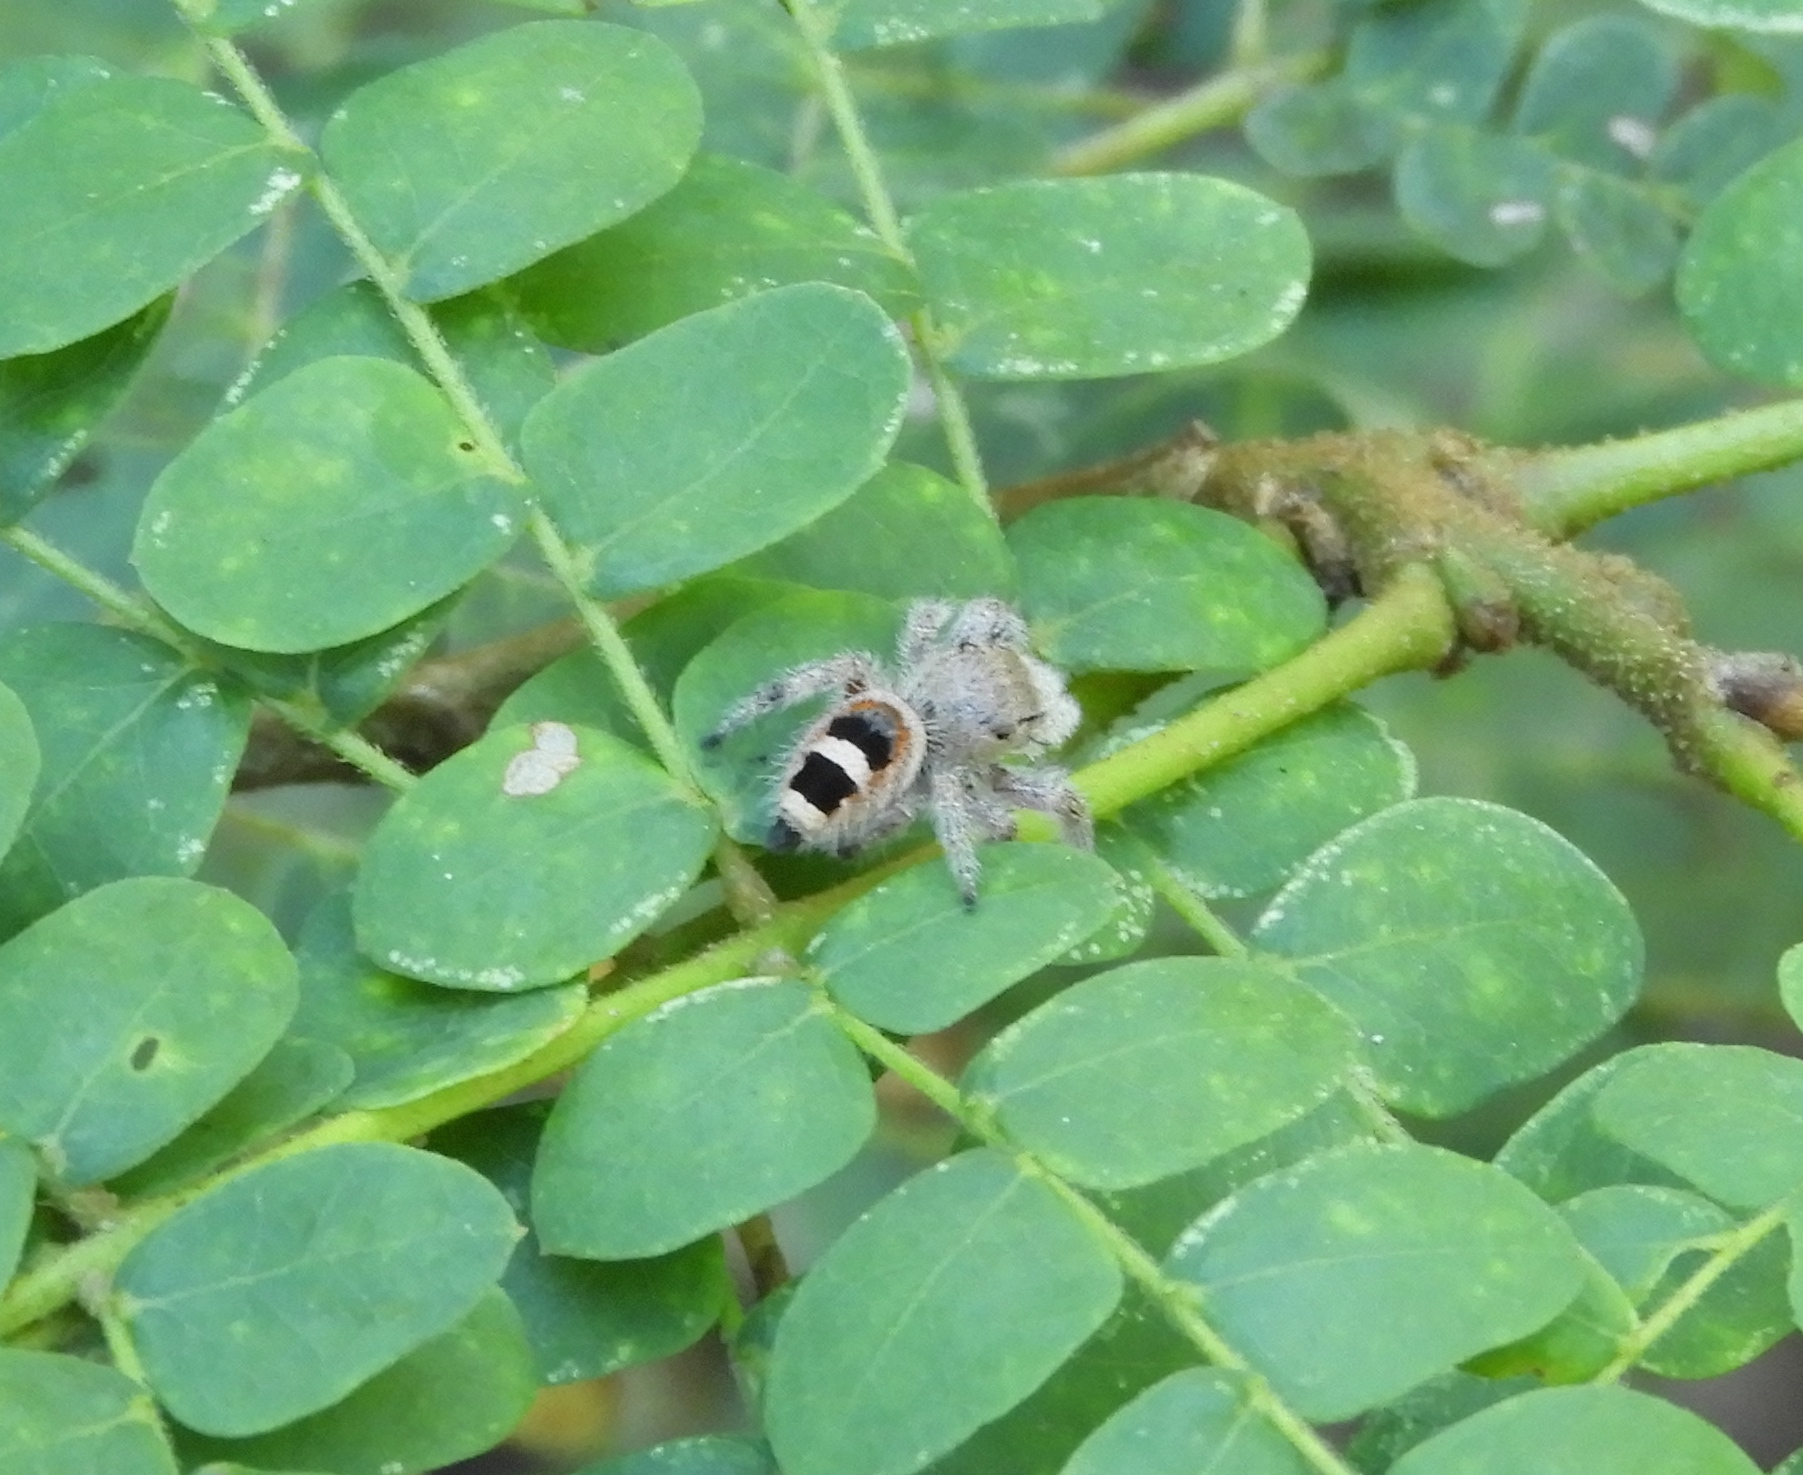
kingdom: Animalia
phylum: Arthropoda
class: Arachnida
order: Araneae
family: Salticidae
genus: Phidippus
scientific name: Phidippus pacosauritus
